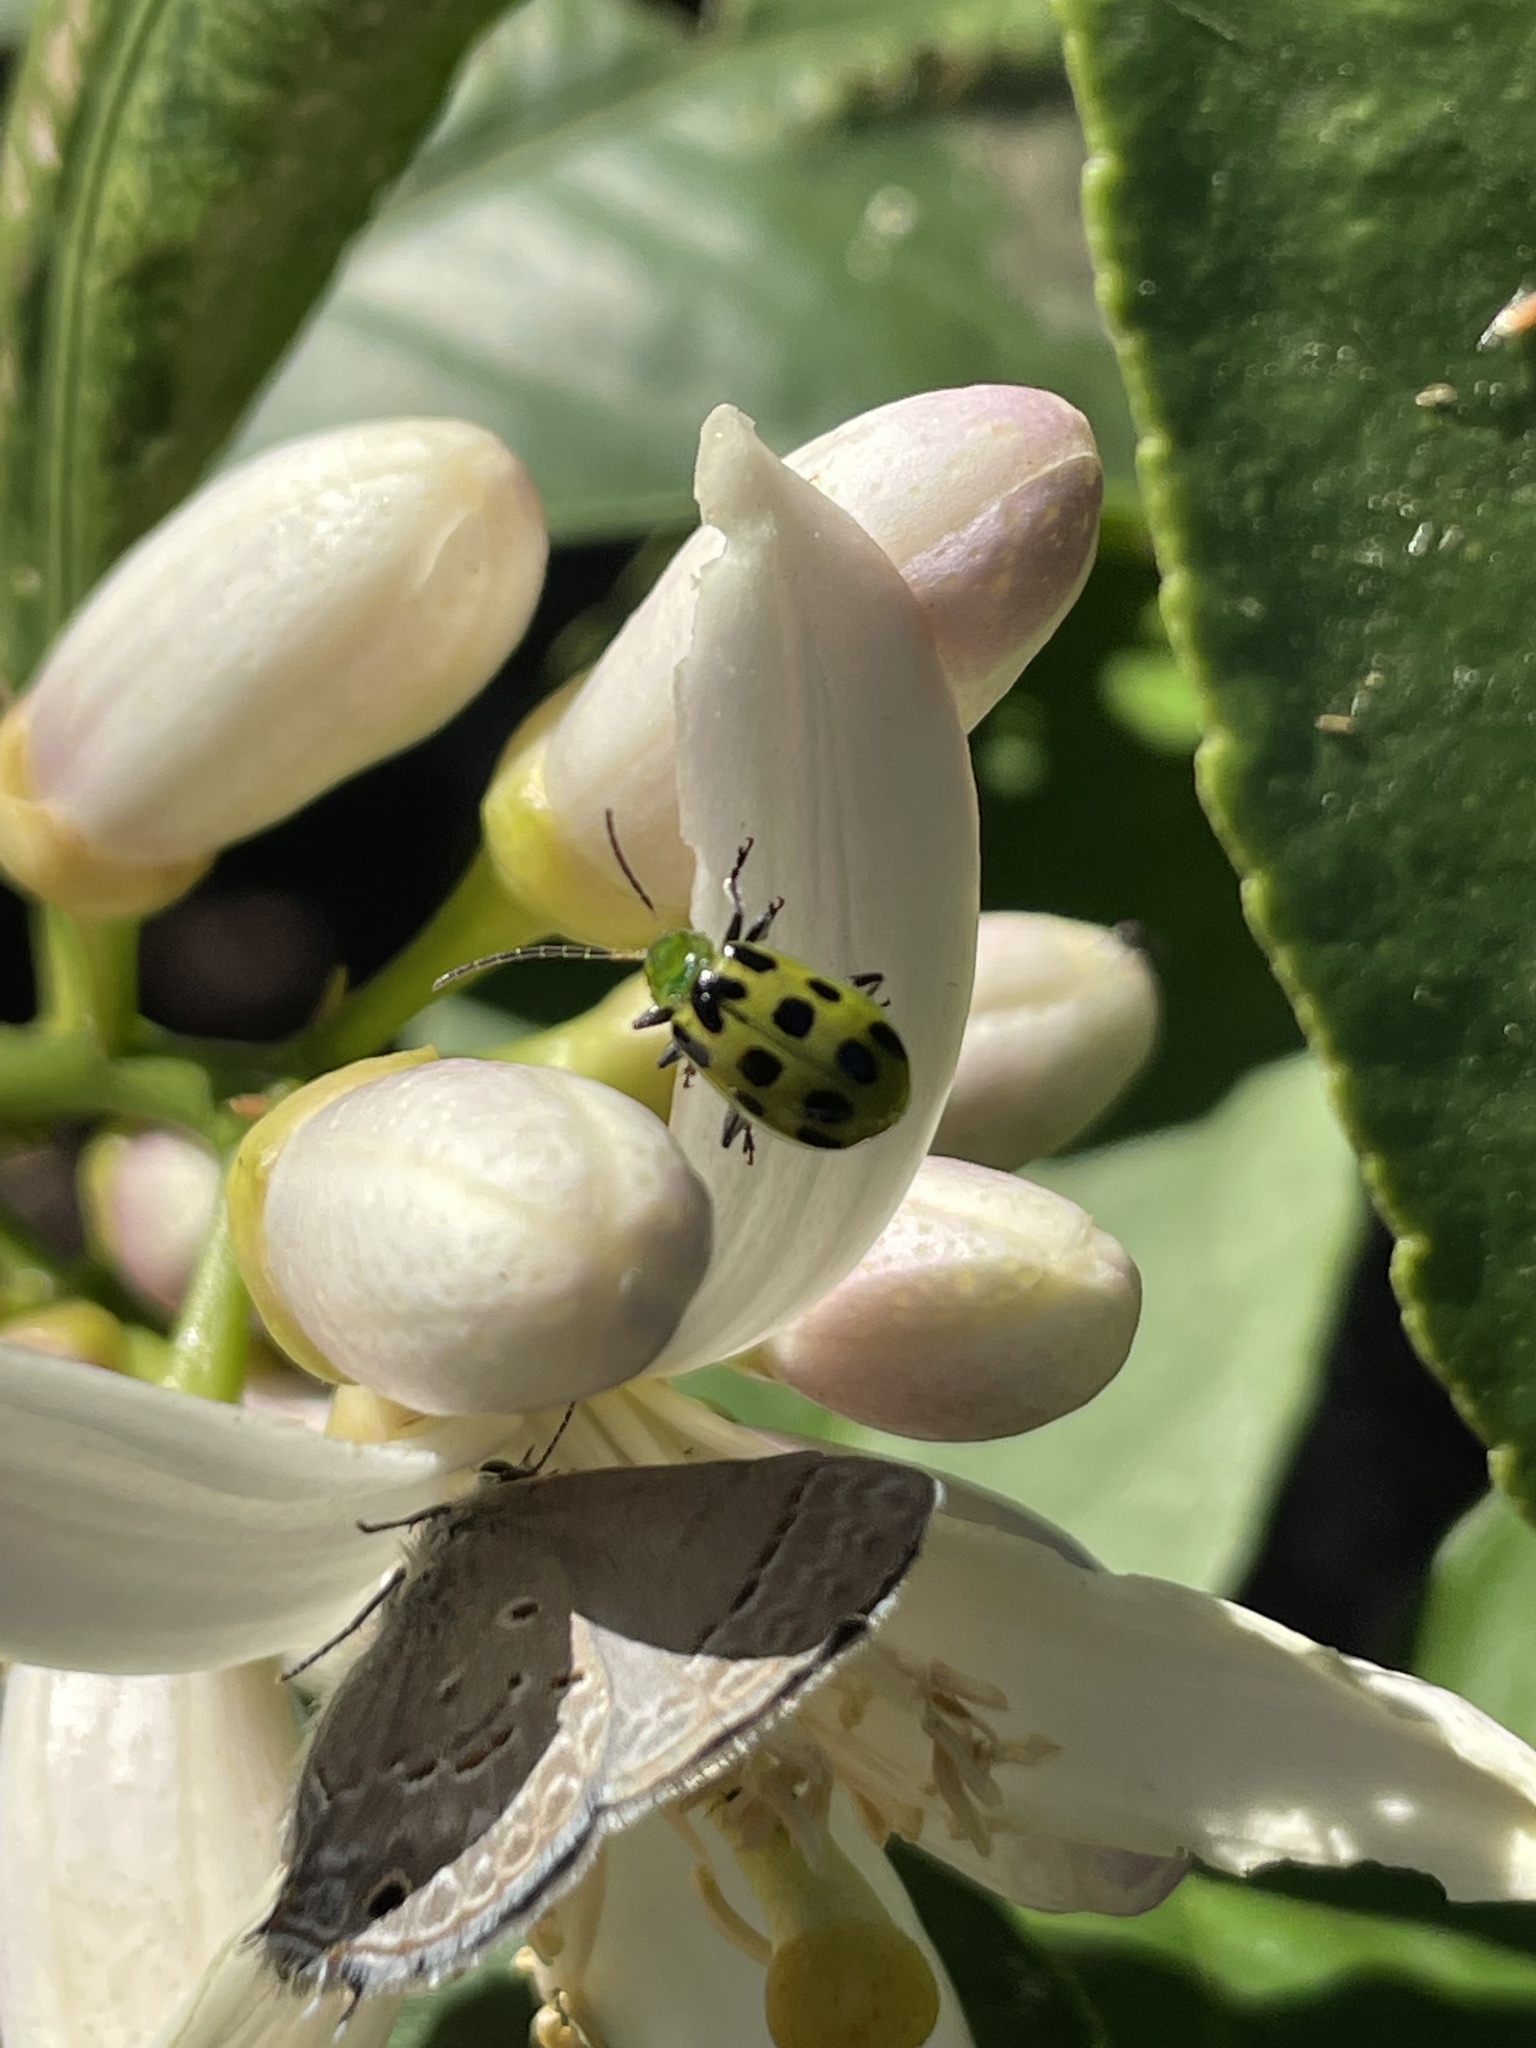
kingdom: Animalia
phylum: Arthropoda
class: Insecta
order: Coleoptera
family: Chrysomelidae
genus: Diabrotica
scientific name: Diabrotica undecimpunctata
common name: Spotted cucumber beetle
